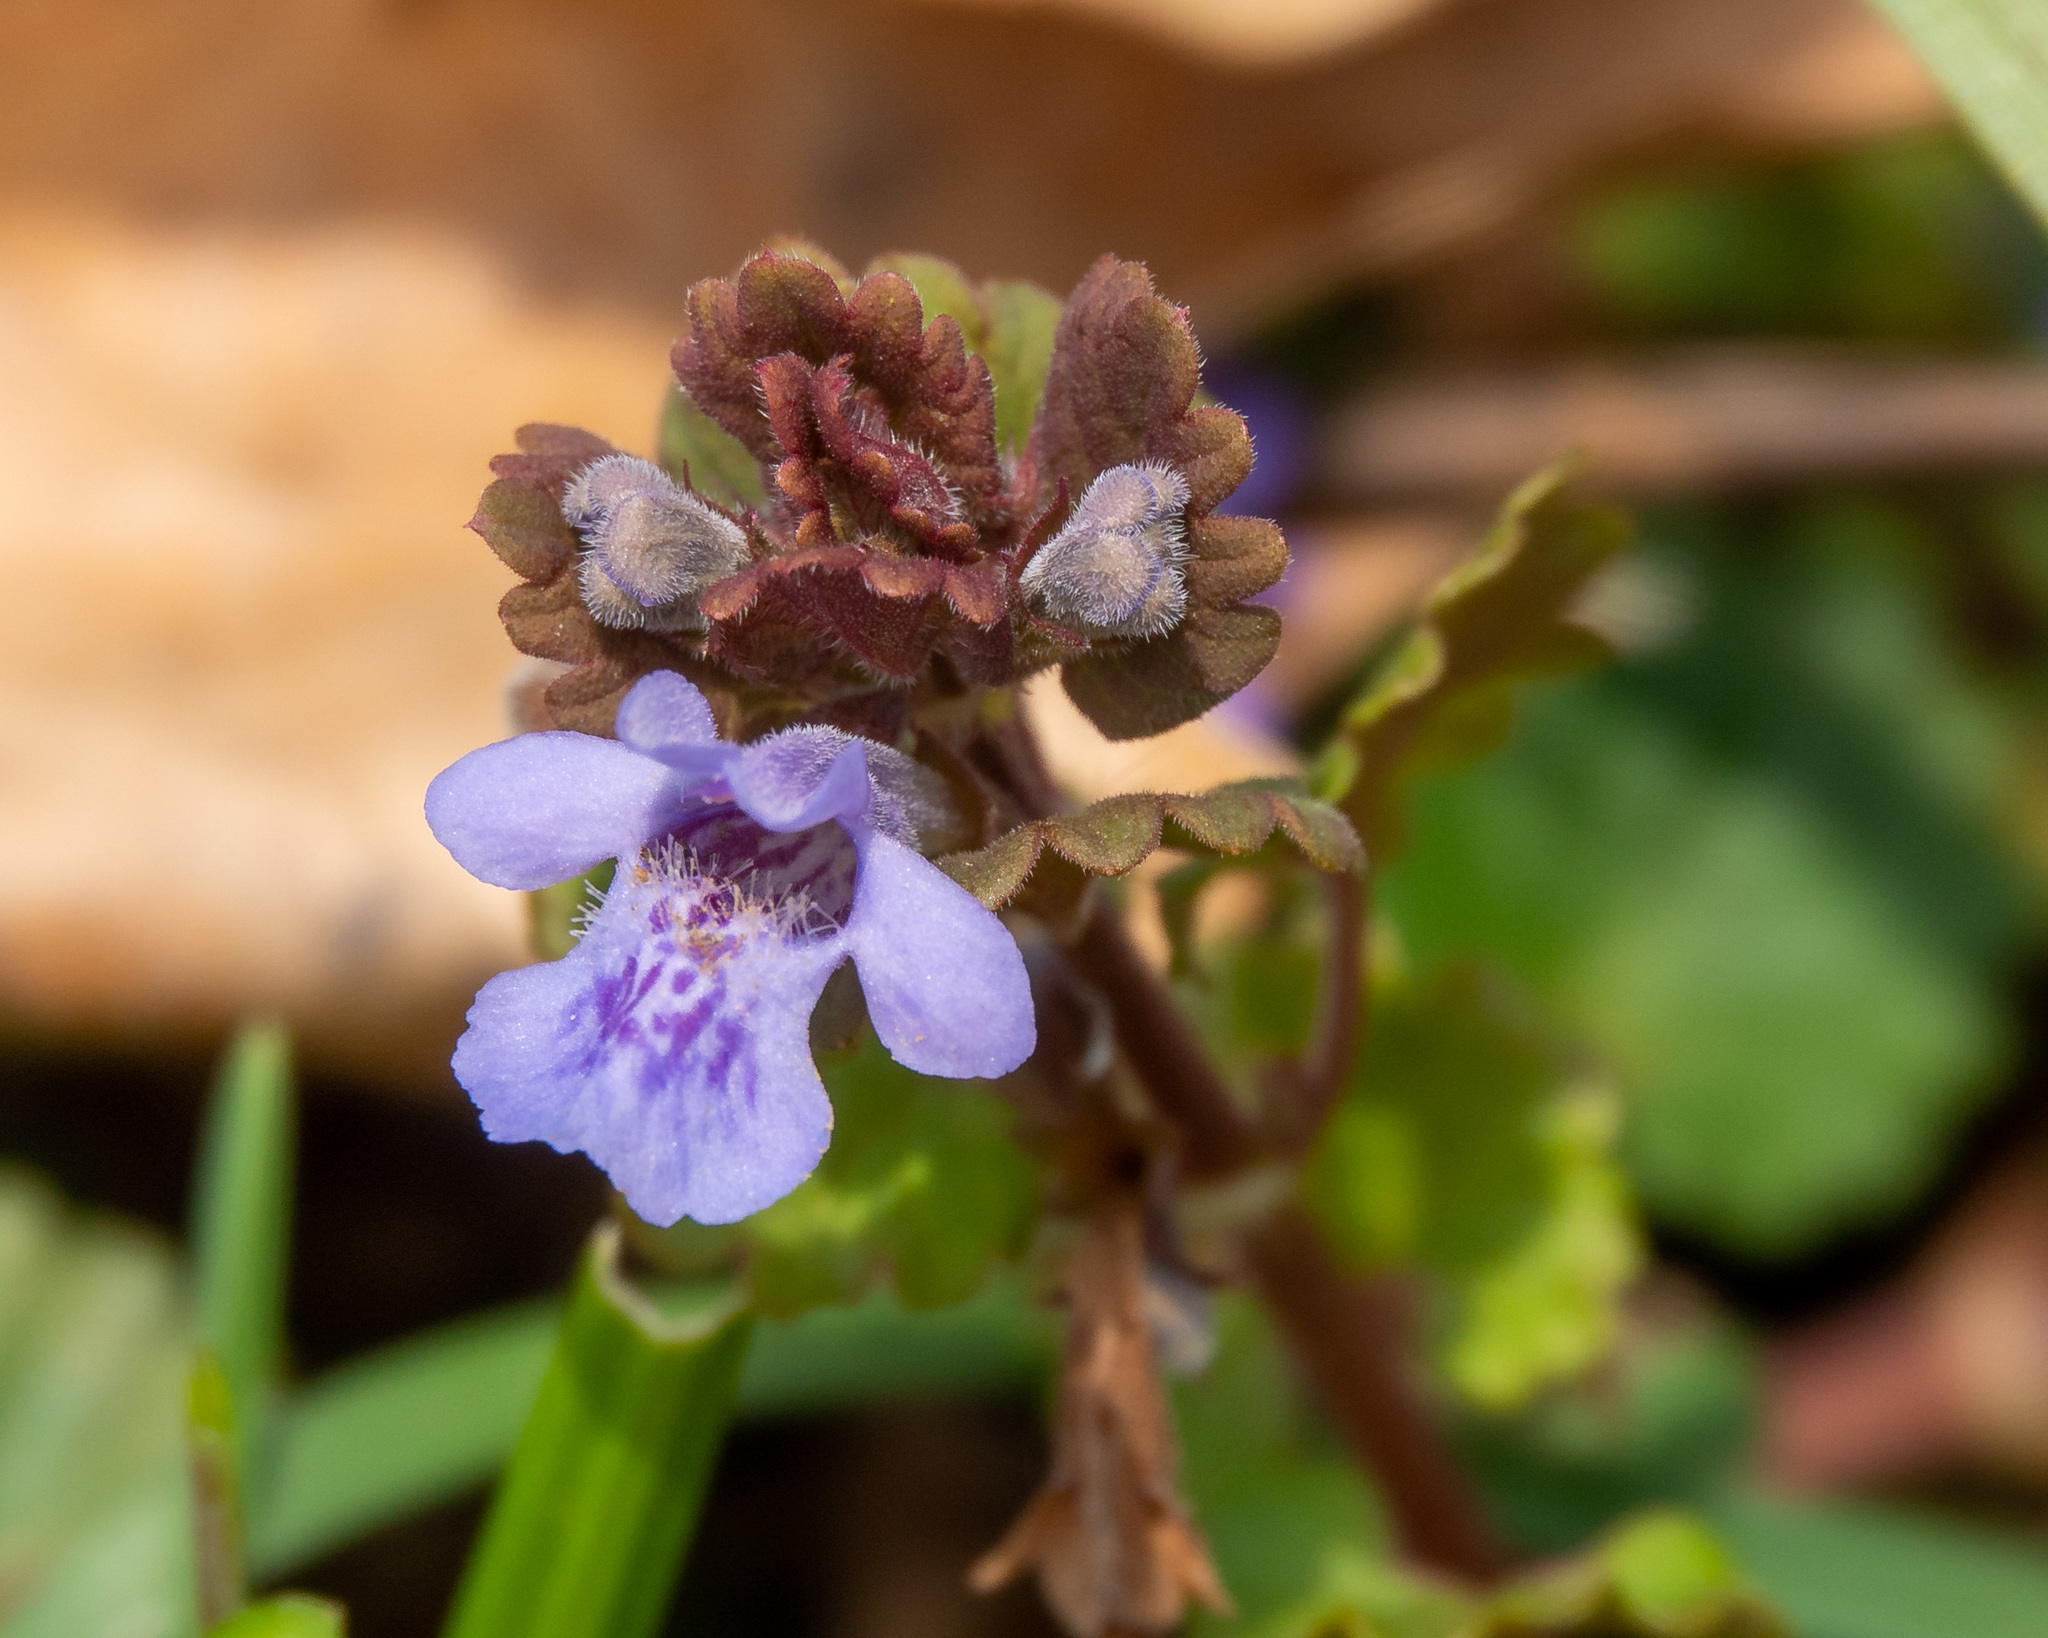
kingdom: Plantae
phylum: Tracheophyta
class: Magnoliopsida
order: Lamiales
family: Lamiaceae
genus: Glechoma
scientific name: Glechoma hederacea
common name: Ground ivy
